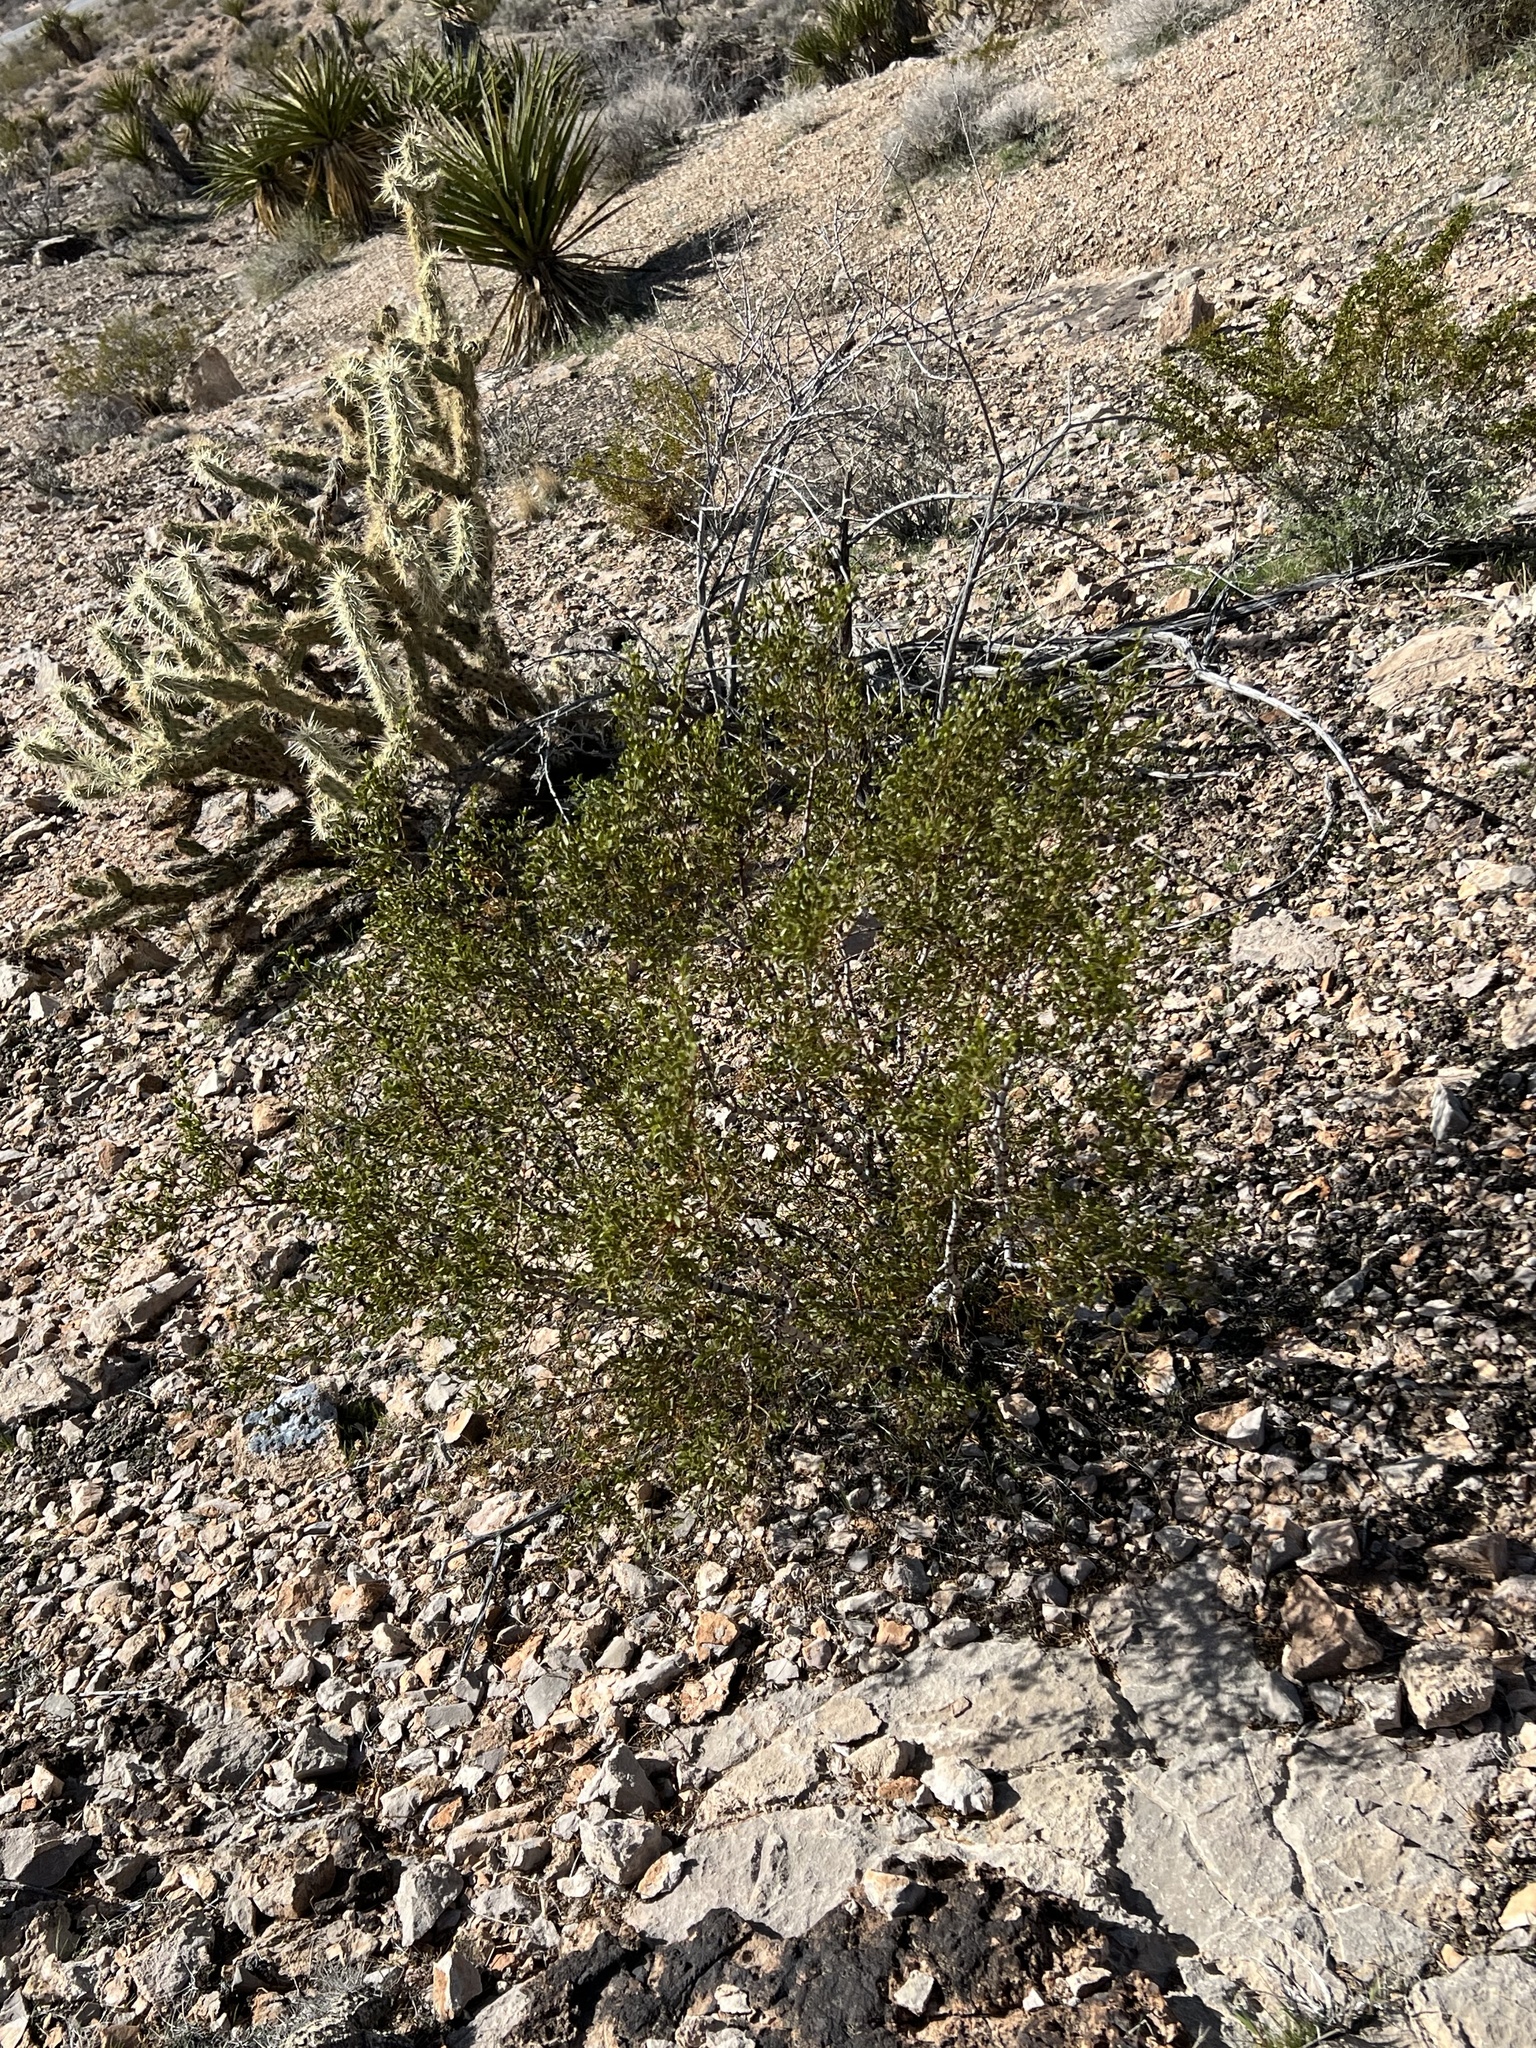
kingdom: Plantae
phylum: Tracheophyta
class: Magnoliopsida
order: Zygophyllales
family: Zygophyllaceae
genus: Larrea
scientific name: Larrea tridentata
